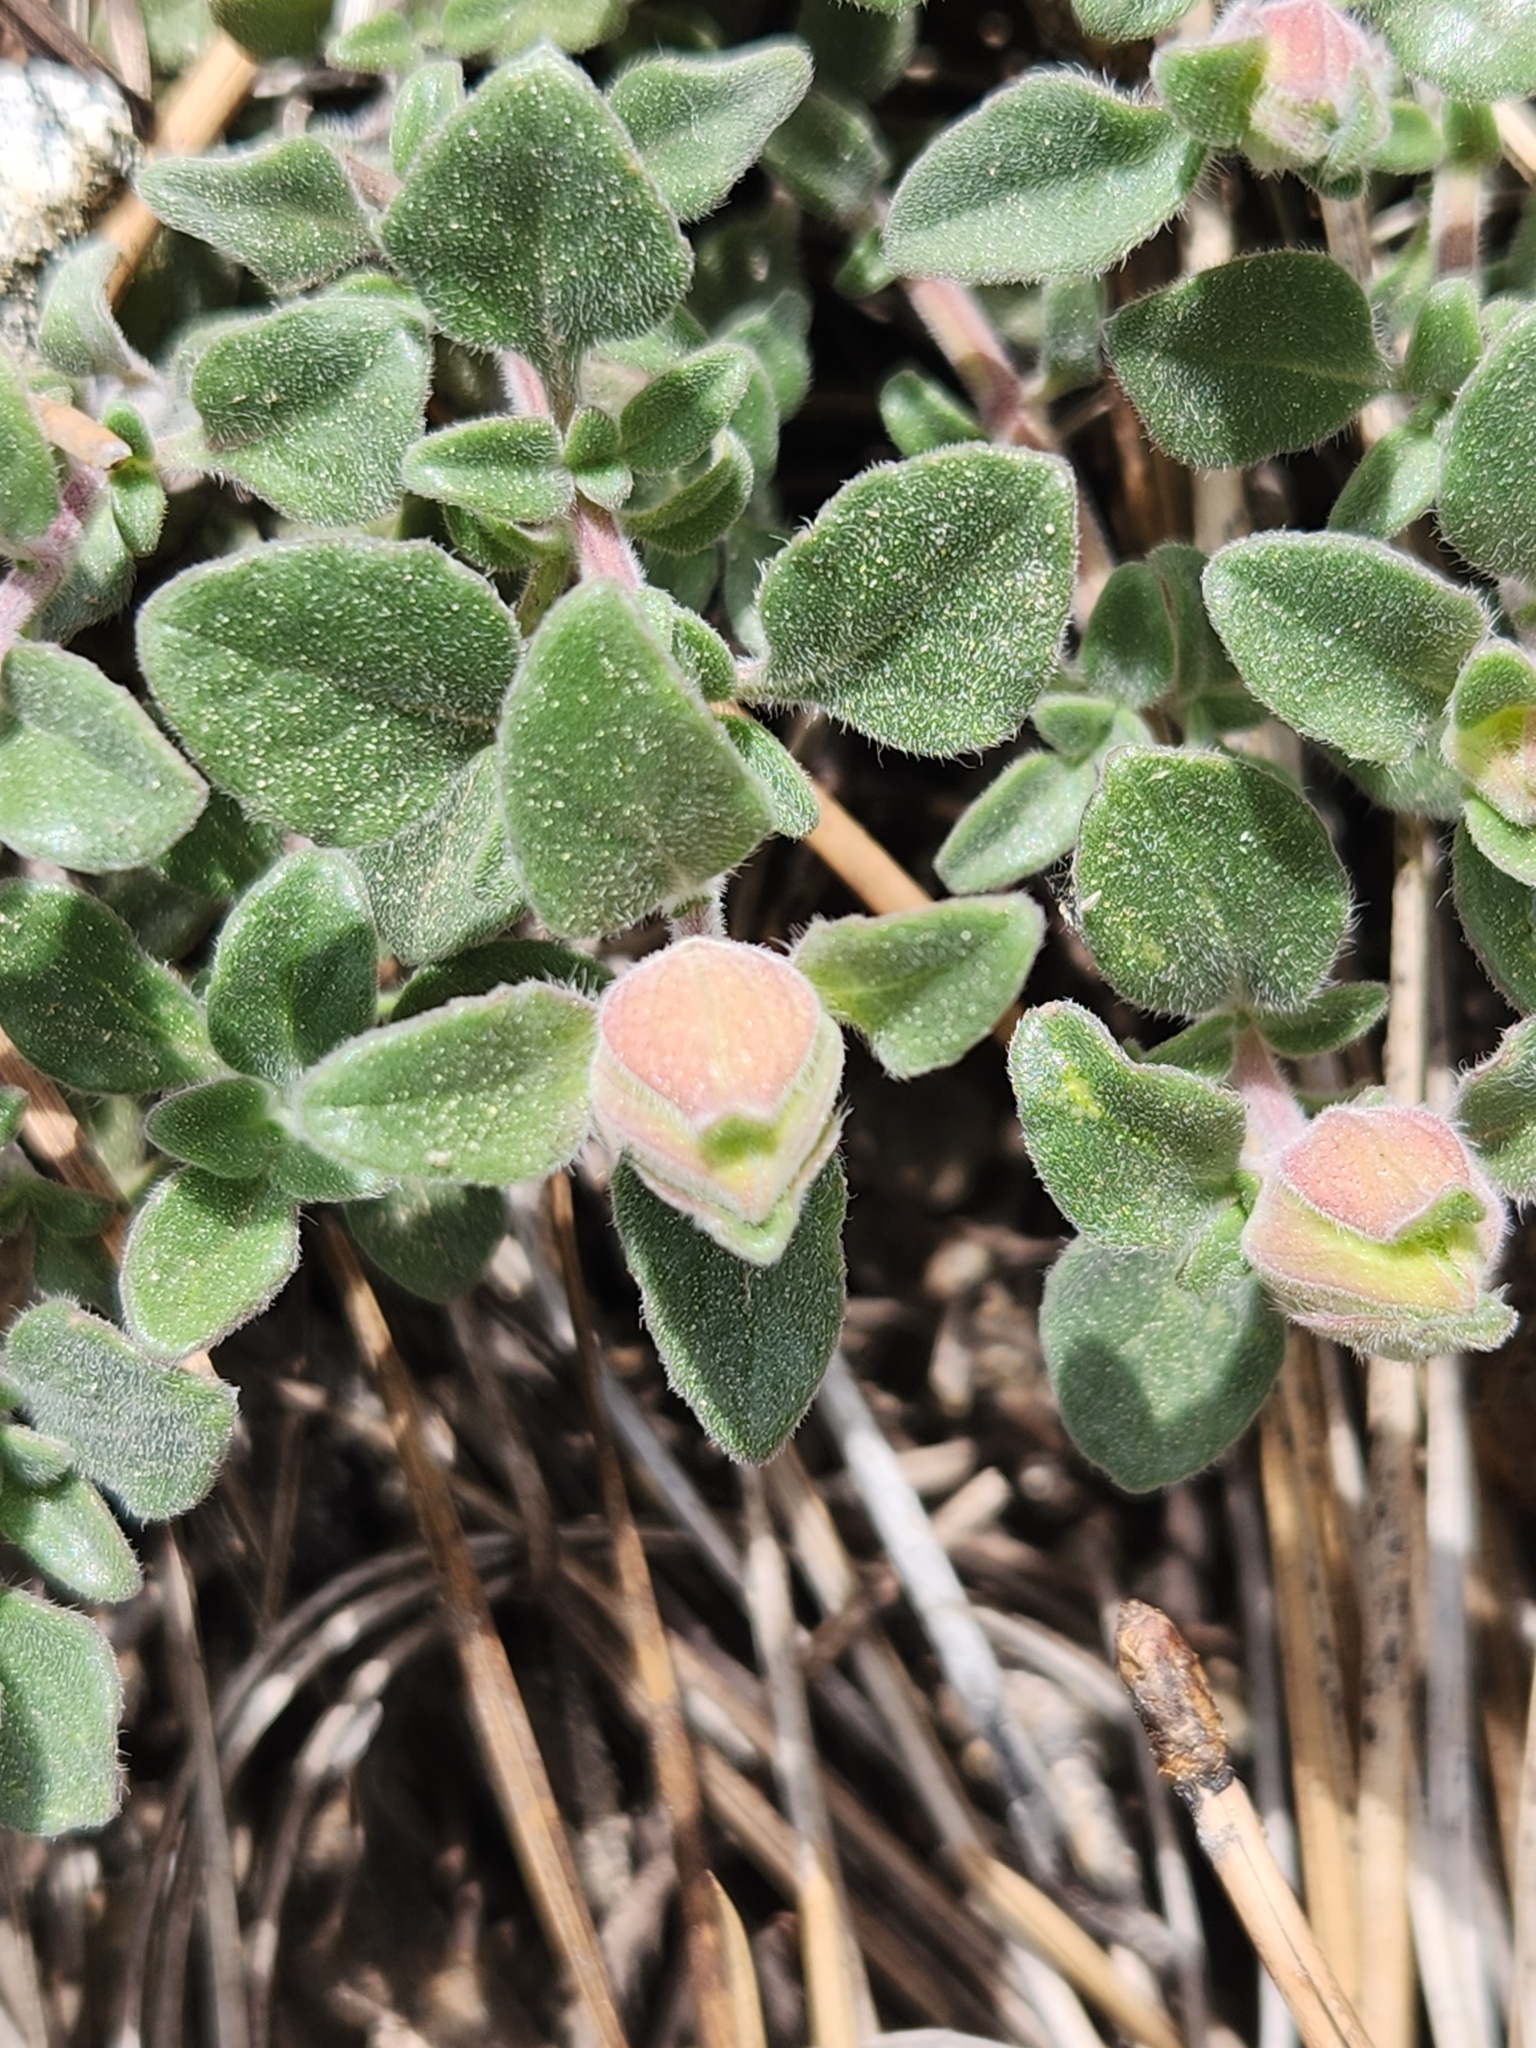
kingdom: Plantae
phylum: Tracheophyta
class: Magnoliopsida
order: Lamiales
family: Lamiaceae
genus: Monardella
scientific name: Monardella nana
